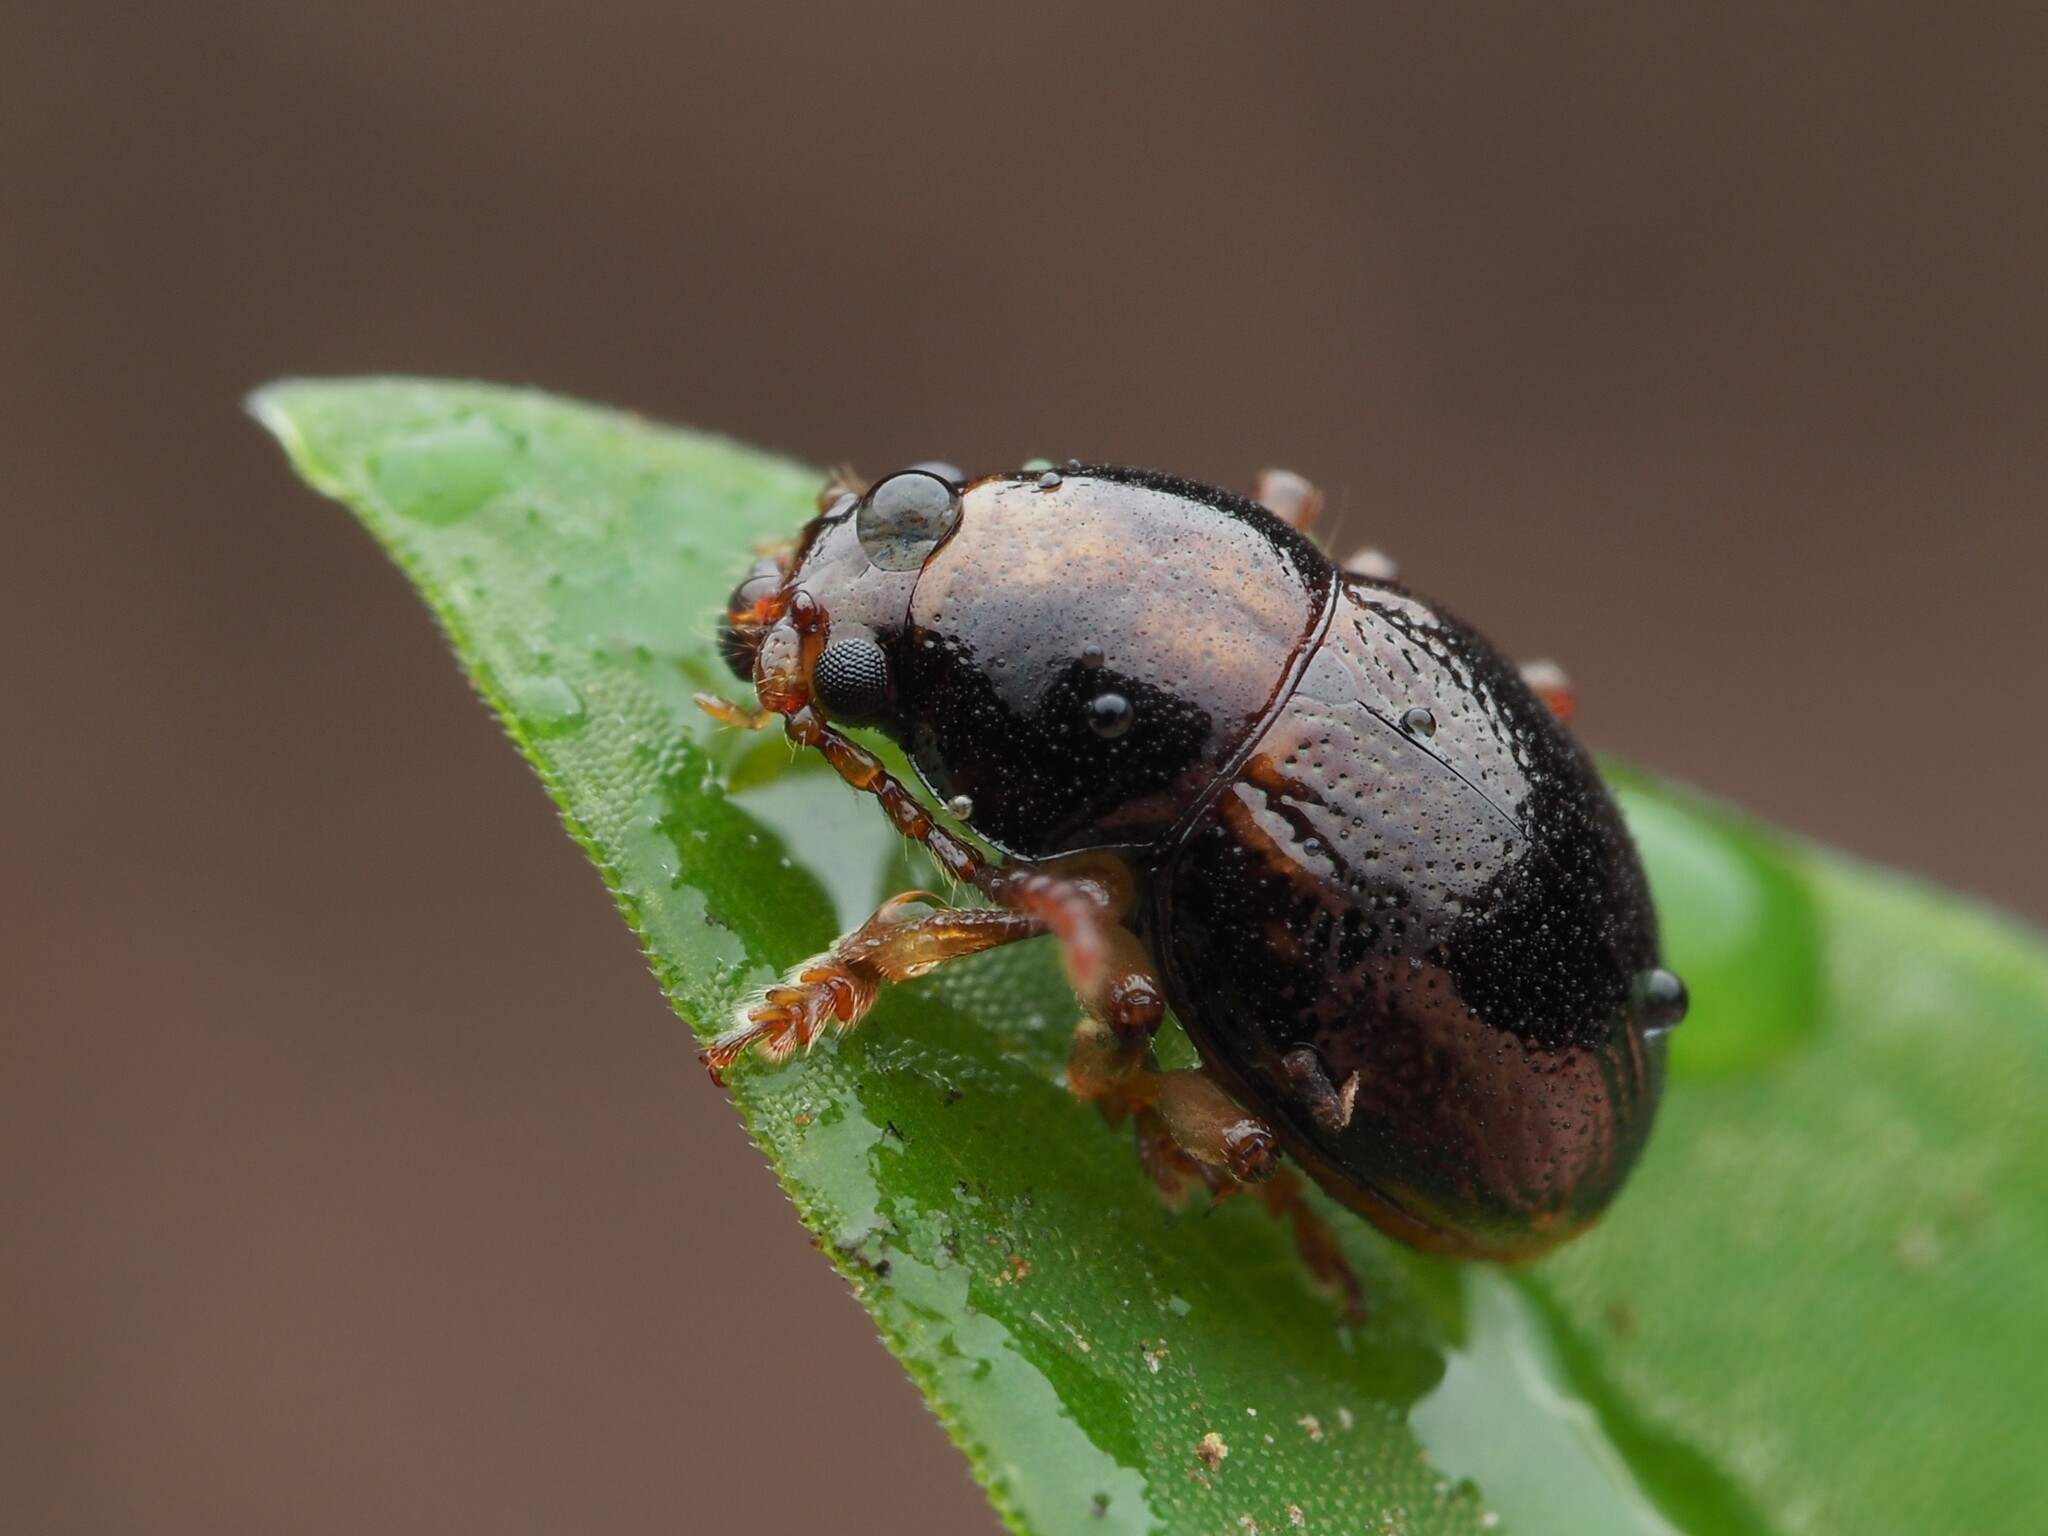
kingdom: Animalia
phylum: Arthropoda
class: Insecta
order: Coleoptera
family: Chrysomelidae
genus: Peniticus
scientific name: Peniticus suffusus
